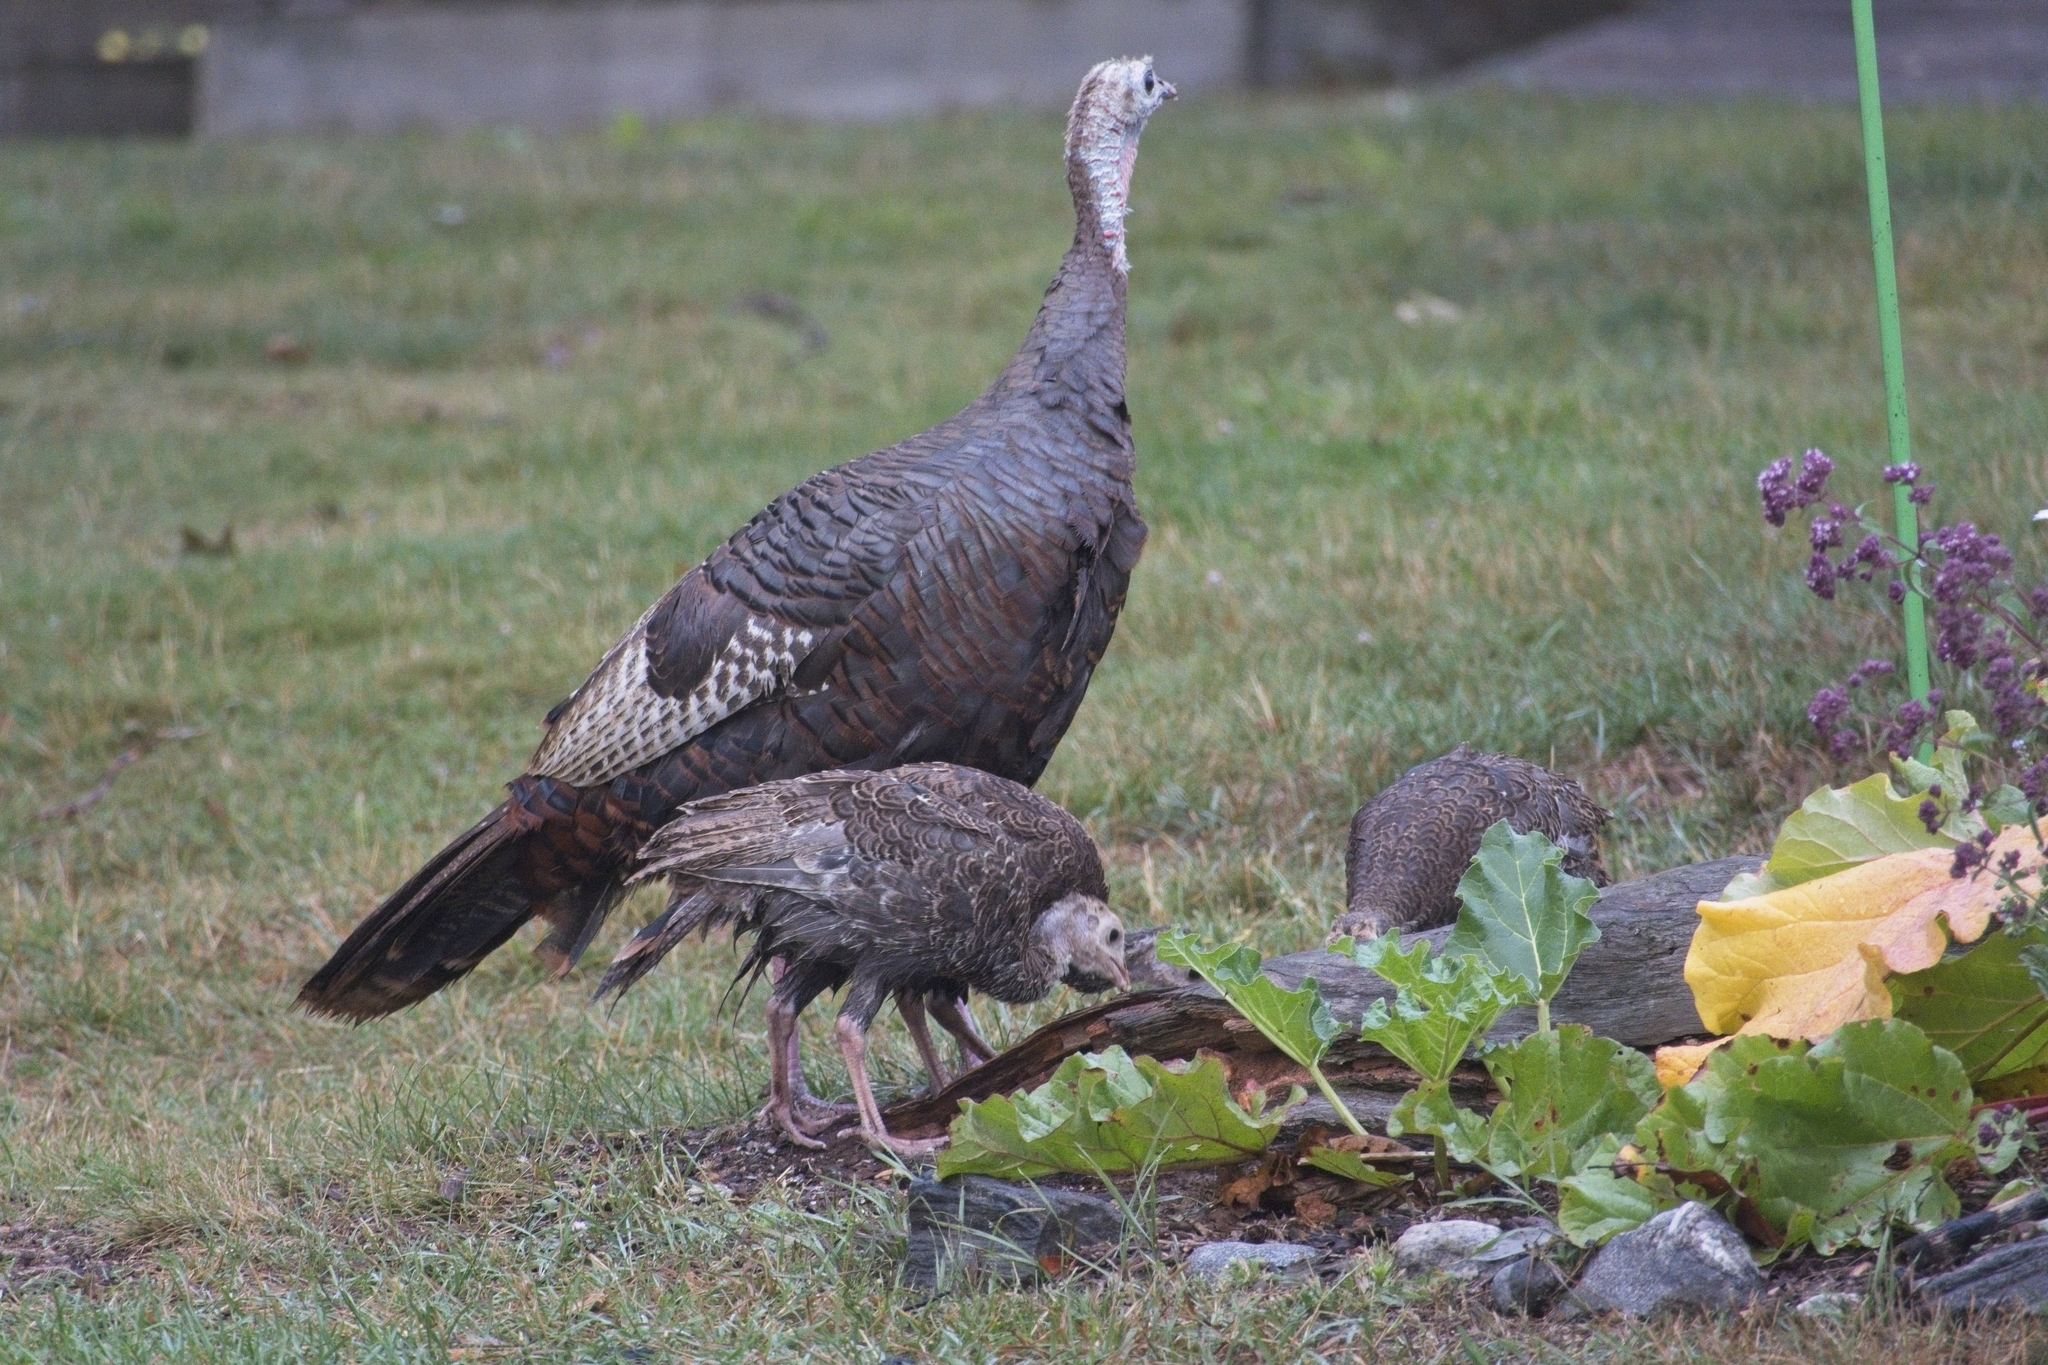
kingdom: Animalia
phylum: Chordata
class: Aves
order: Galliformes
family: Phasianidae
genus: Meleagris
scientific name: Meleagris gallopavo
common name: Wild turkey
